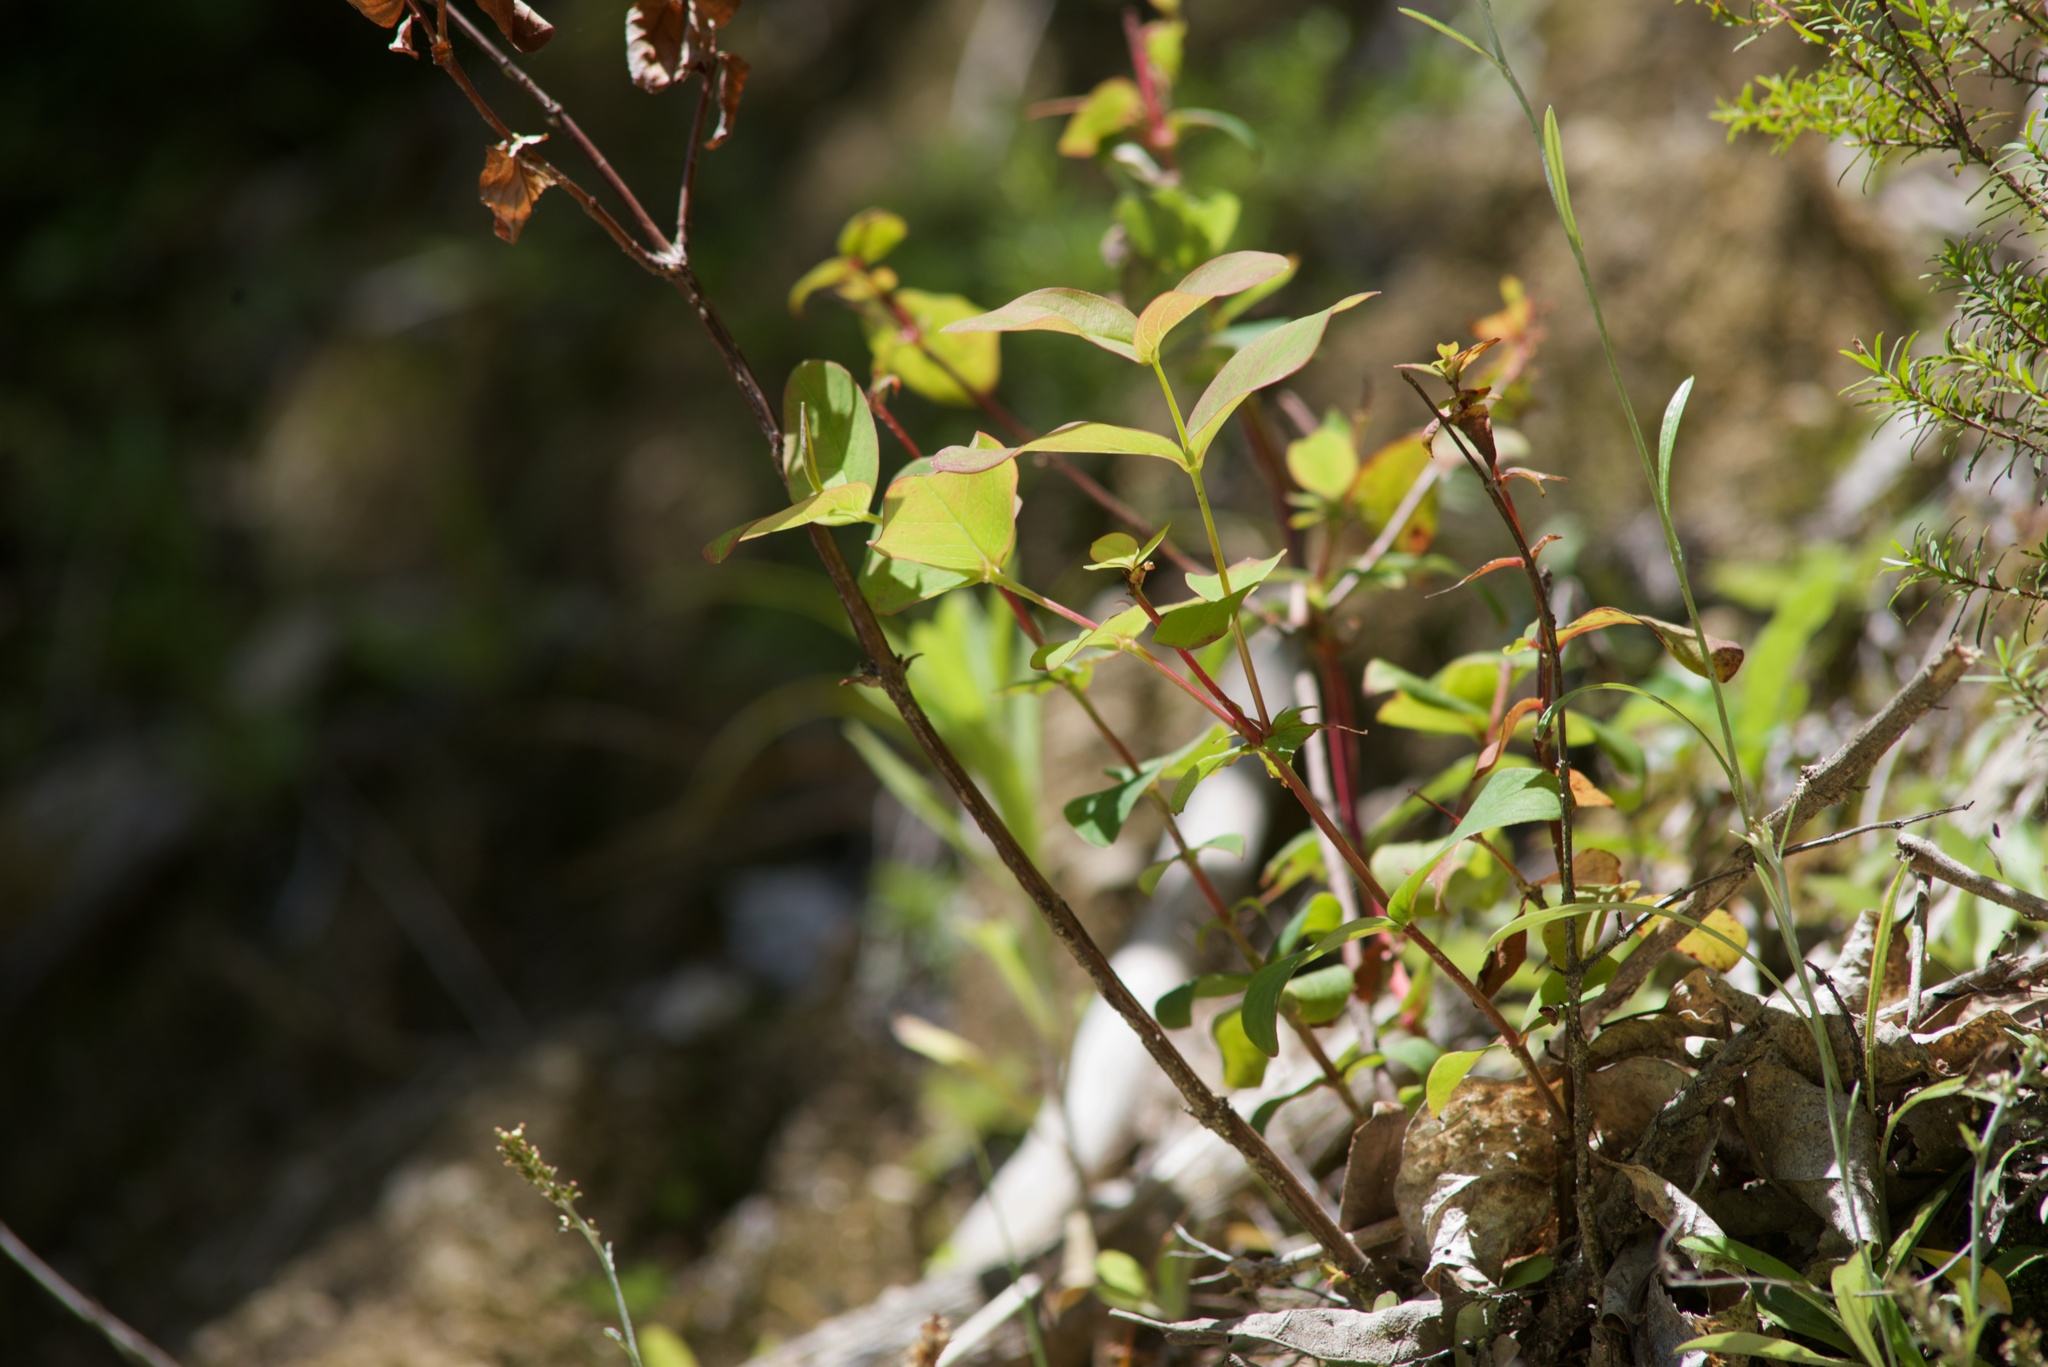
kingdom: Plantae
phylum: Tracheophyta
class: Magnoliopsida
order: Malpighiales
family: Hypericaceae
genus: Hypericum
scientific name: Hypericum androsaemum
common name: Sweet-amber
